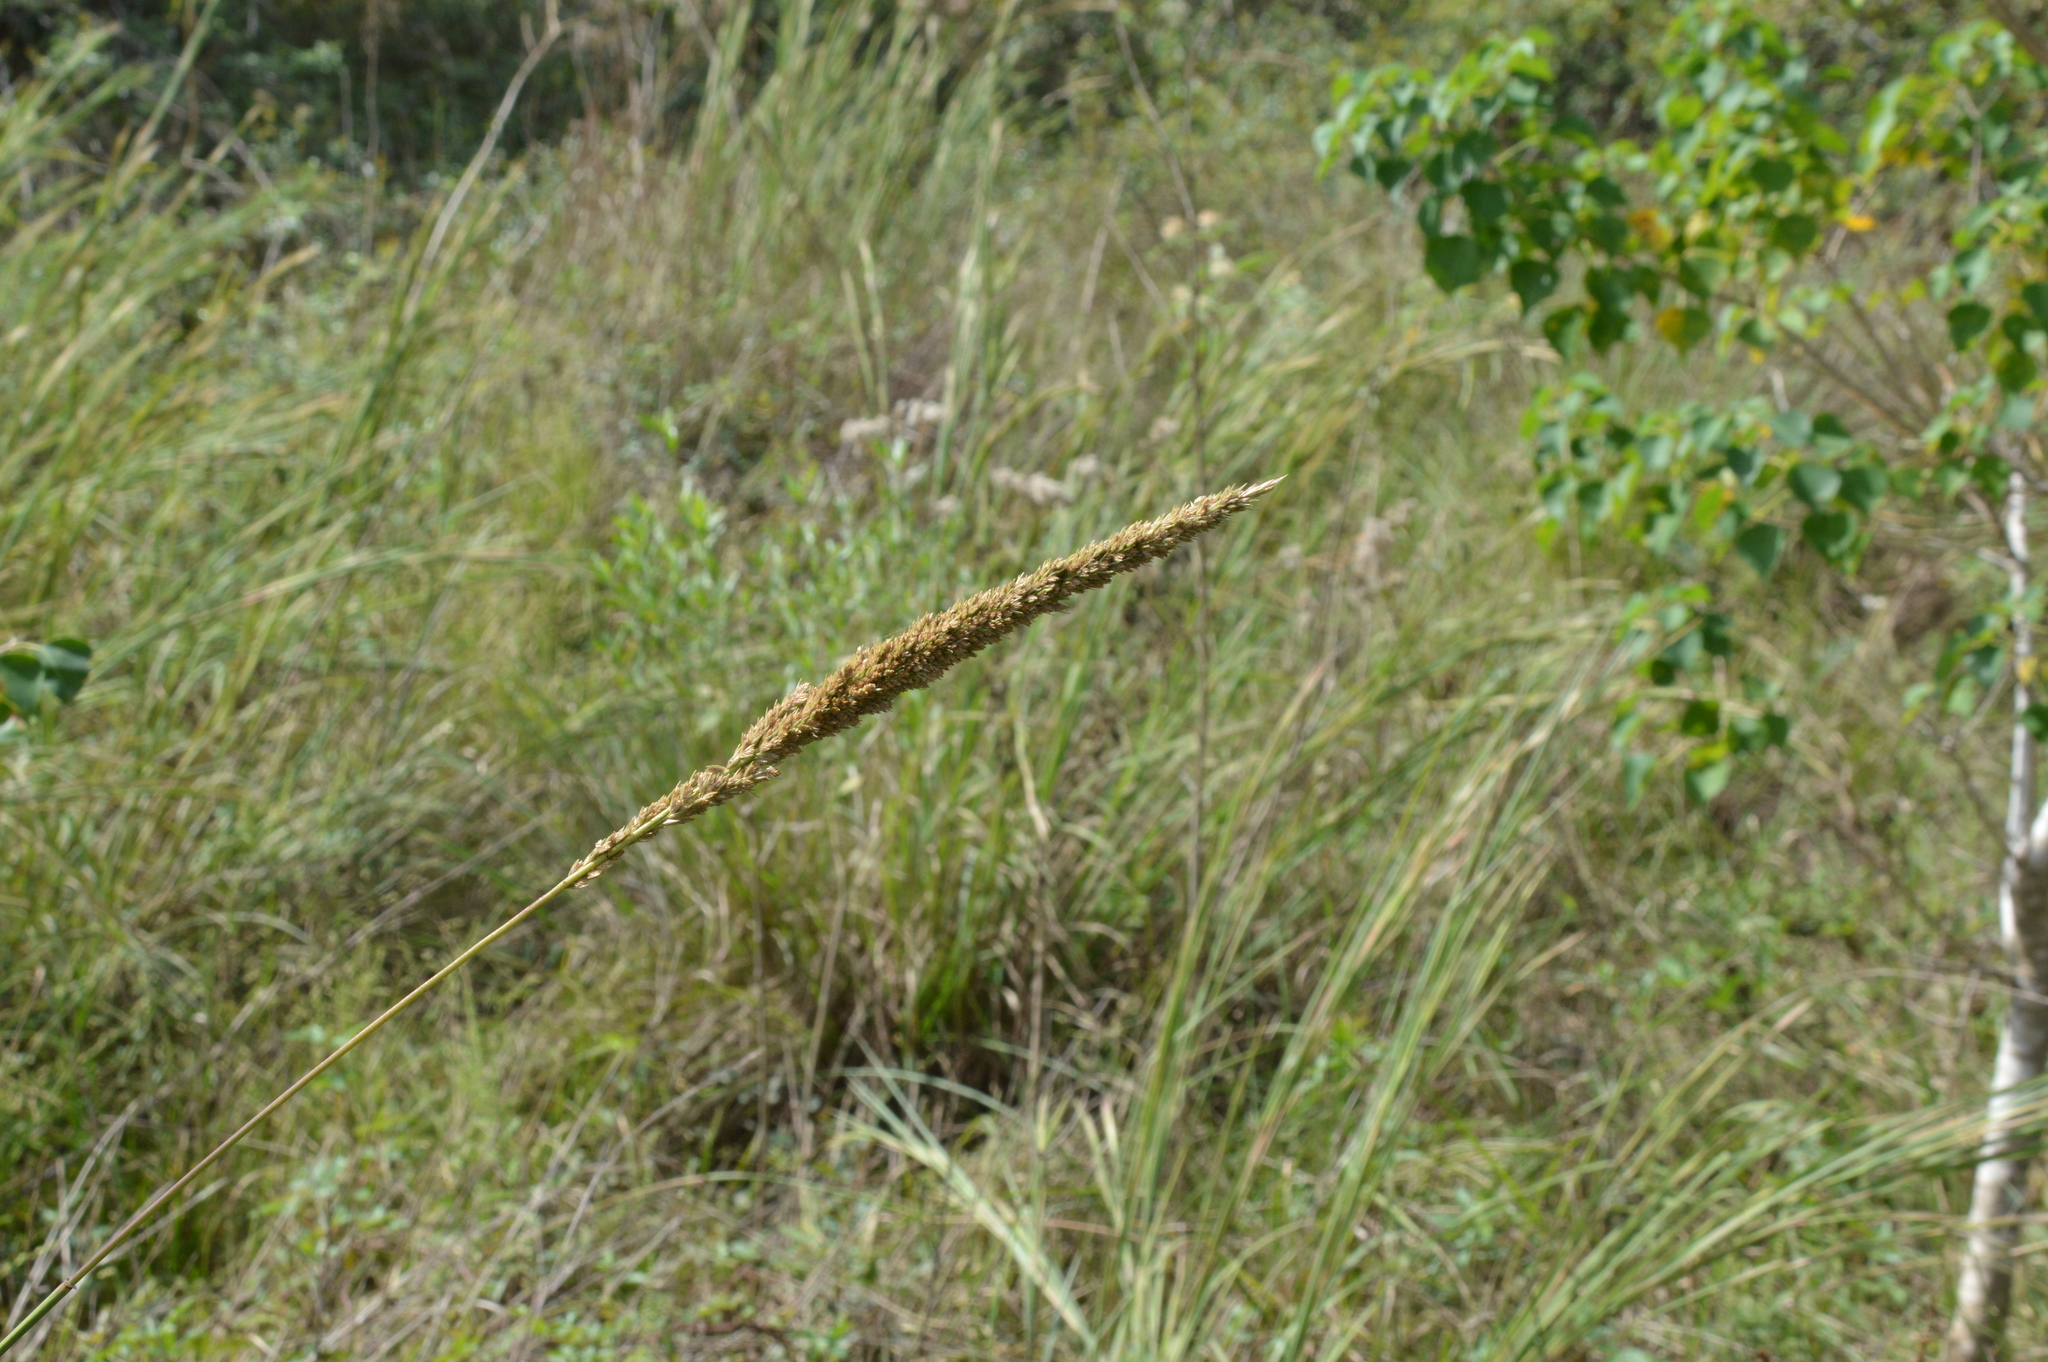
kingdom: Plantae
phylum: Tracheophyta
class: Liliopsida
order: Poales
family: Poaceae
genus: Tridens
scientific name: Tridens strictus
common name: Long-spike tridens
